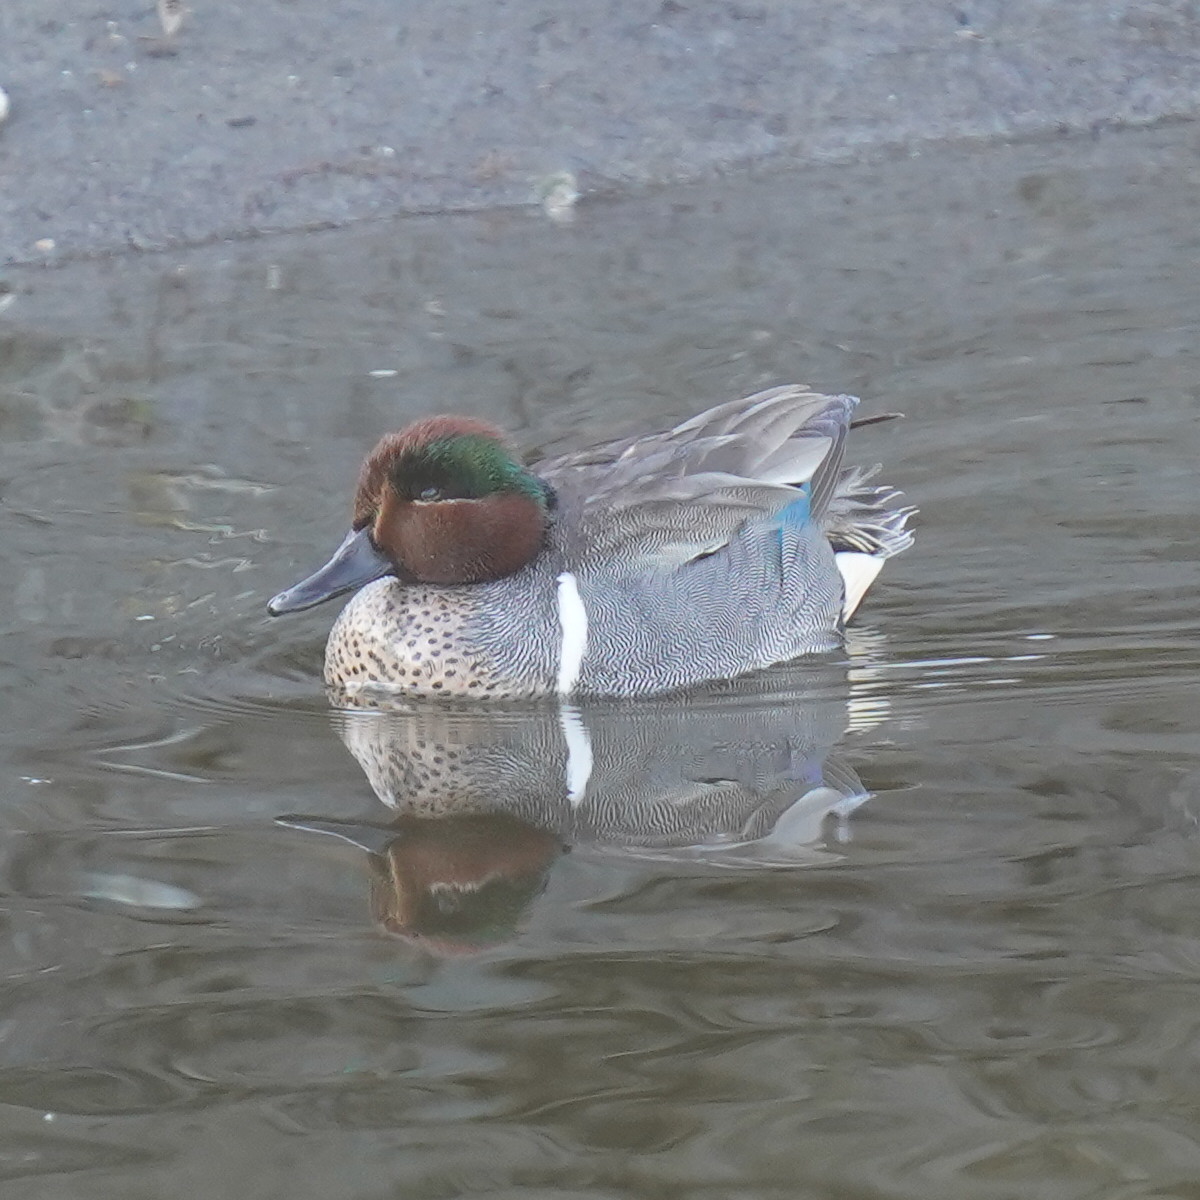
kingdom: Animalia
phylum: Chordata
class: Aves
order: Anseriformes
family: Anatidae
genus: Anas
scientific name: Anas crecca
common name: Eurasian teal
